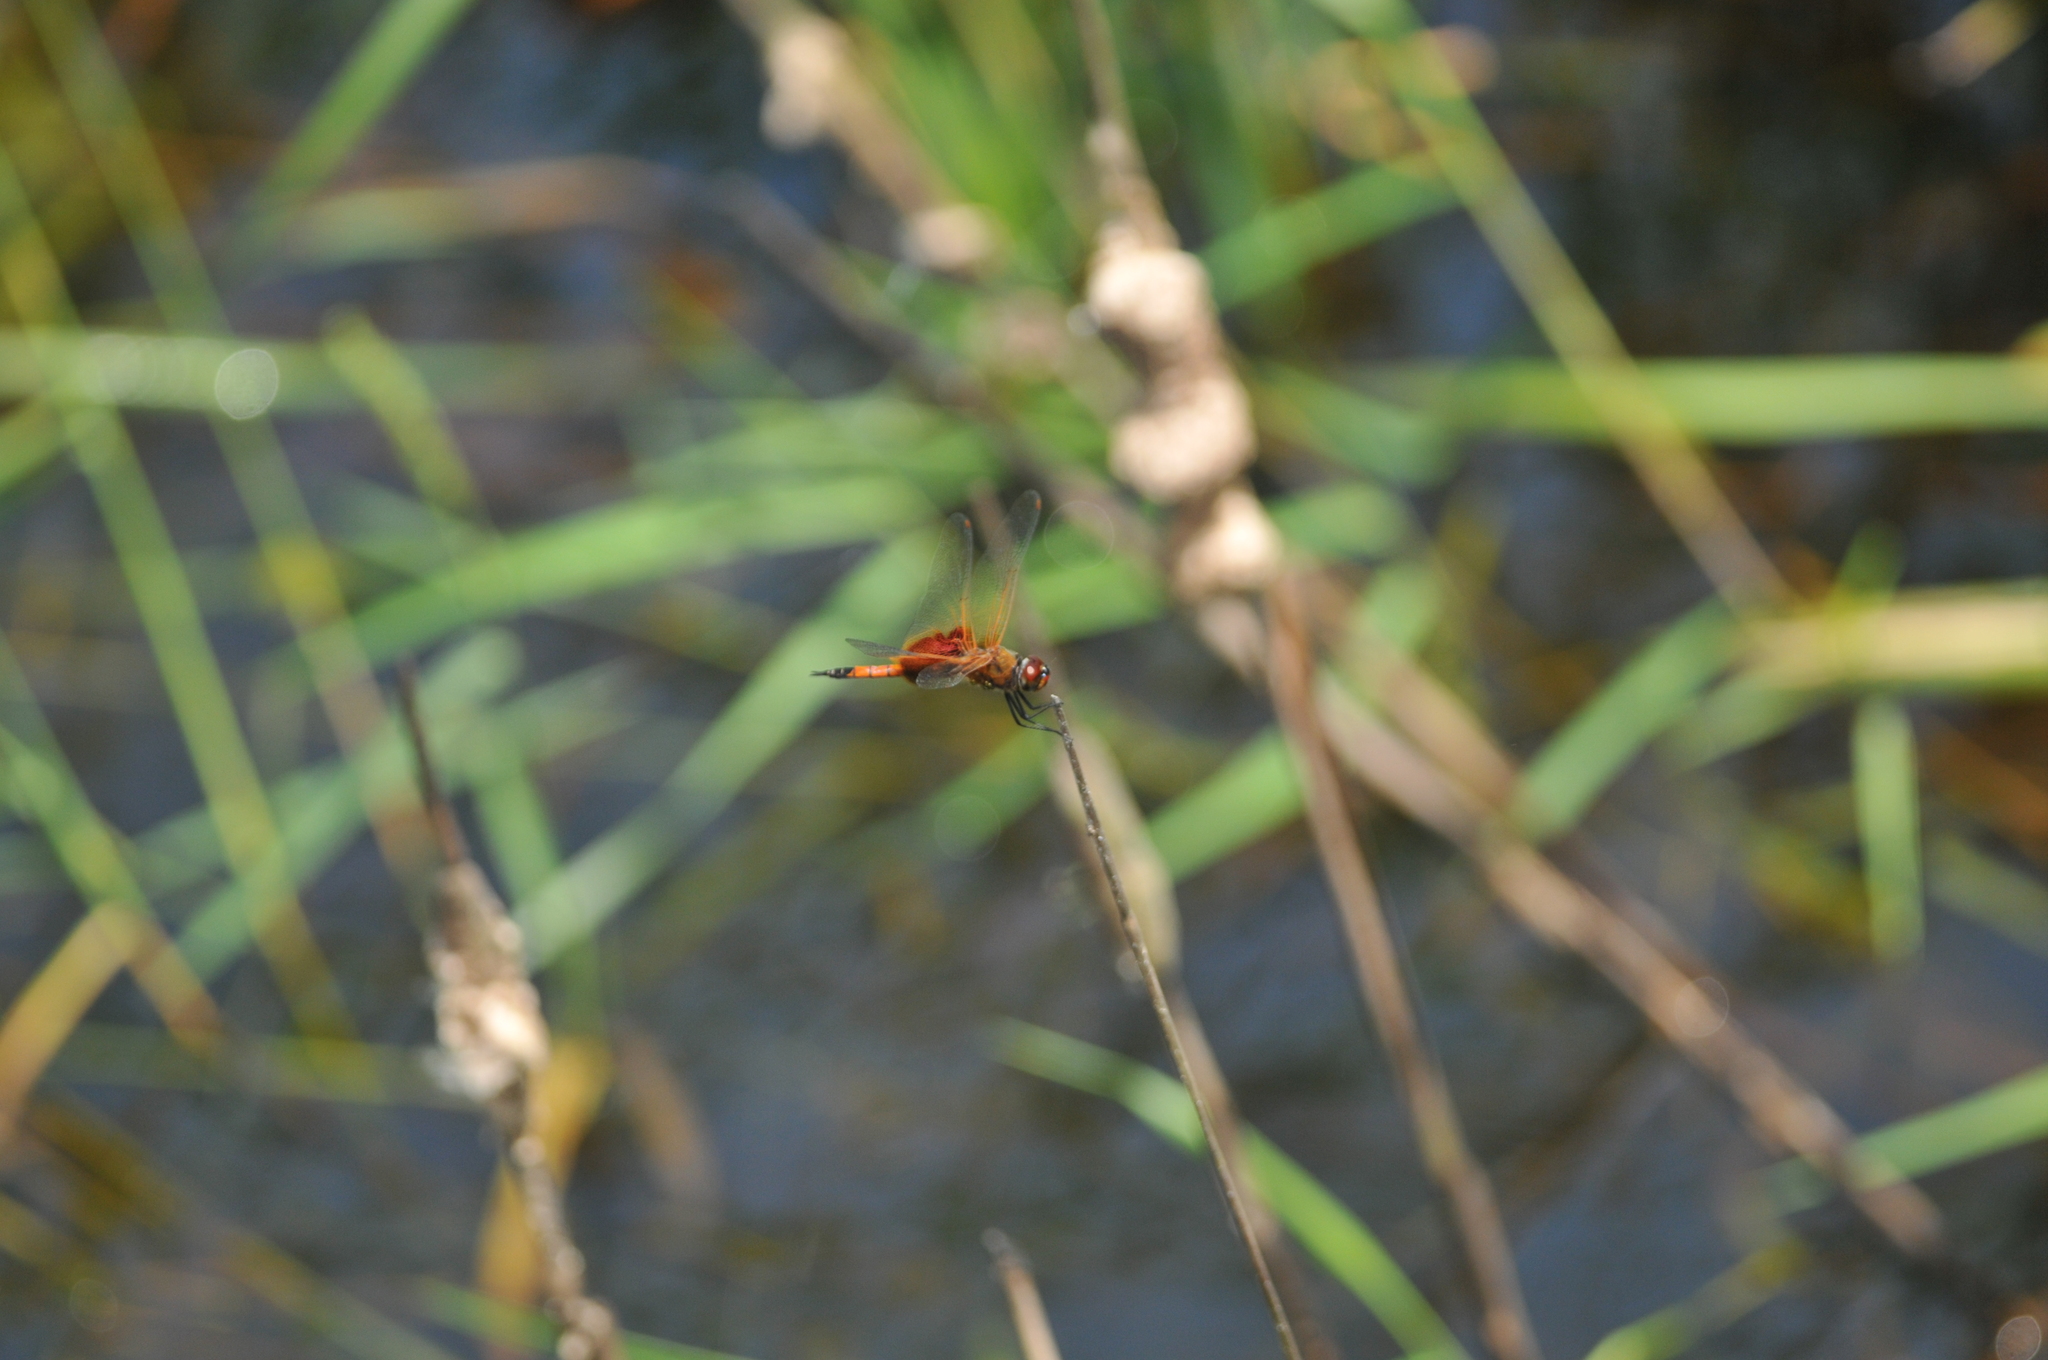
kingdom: Animalia
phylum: Arthropoda
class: Insecta
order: Odonata
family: Libellulidae
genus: Tramea
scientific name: Tramea virginia
